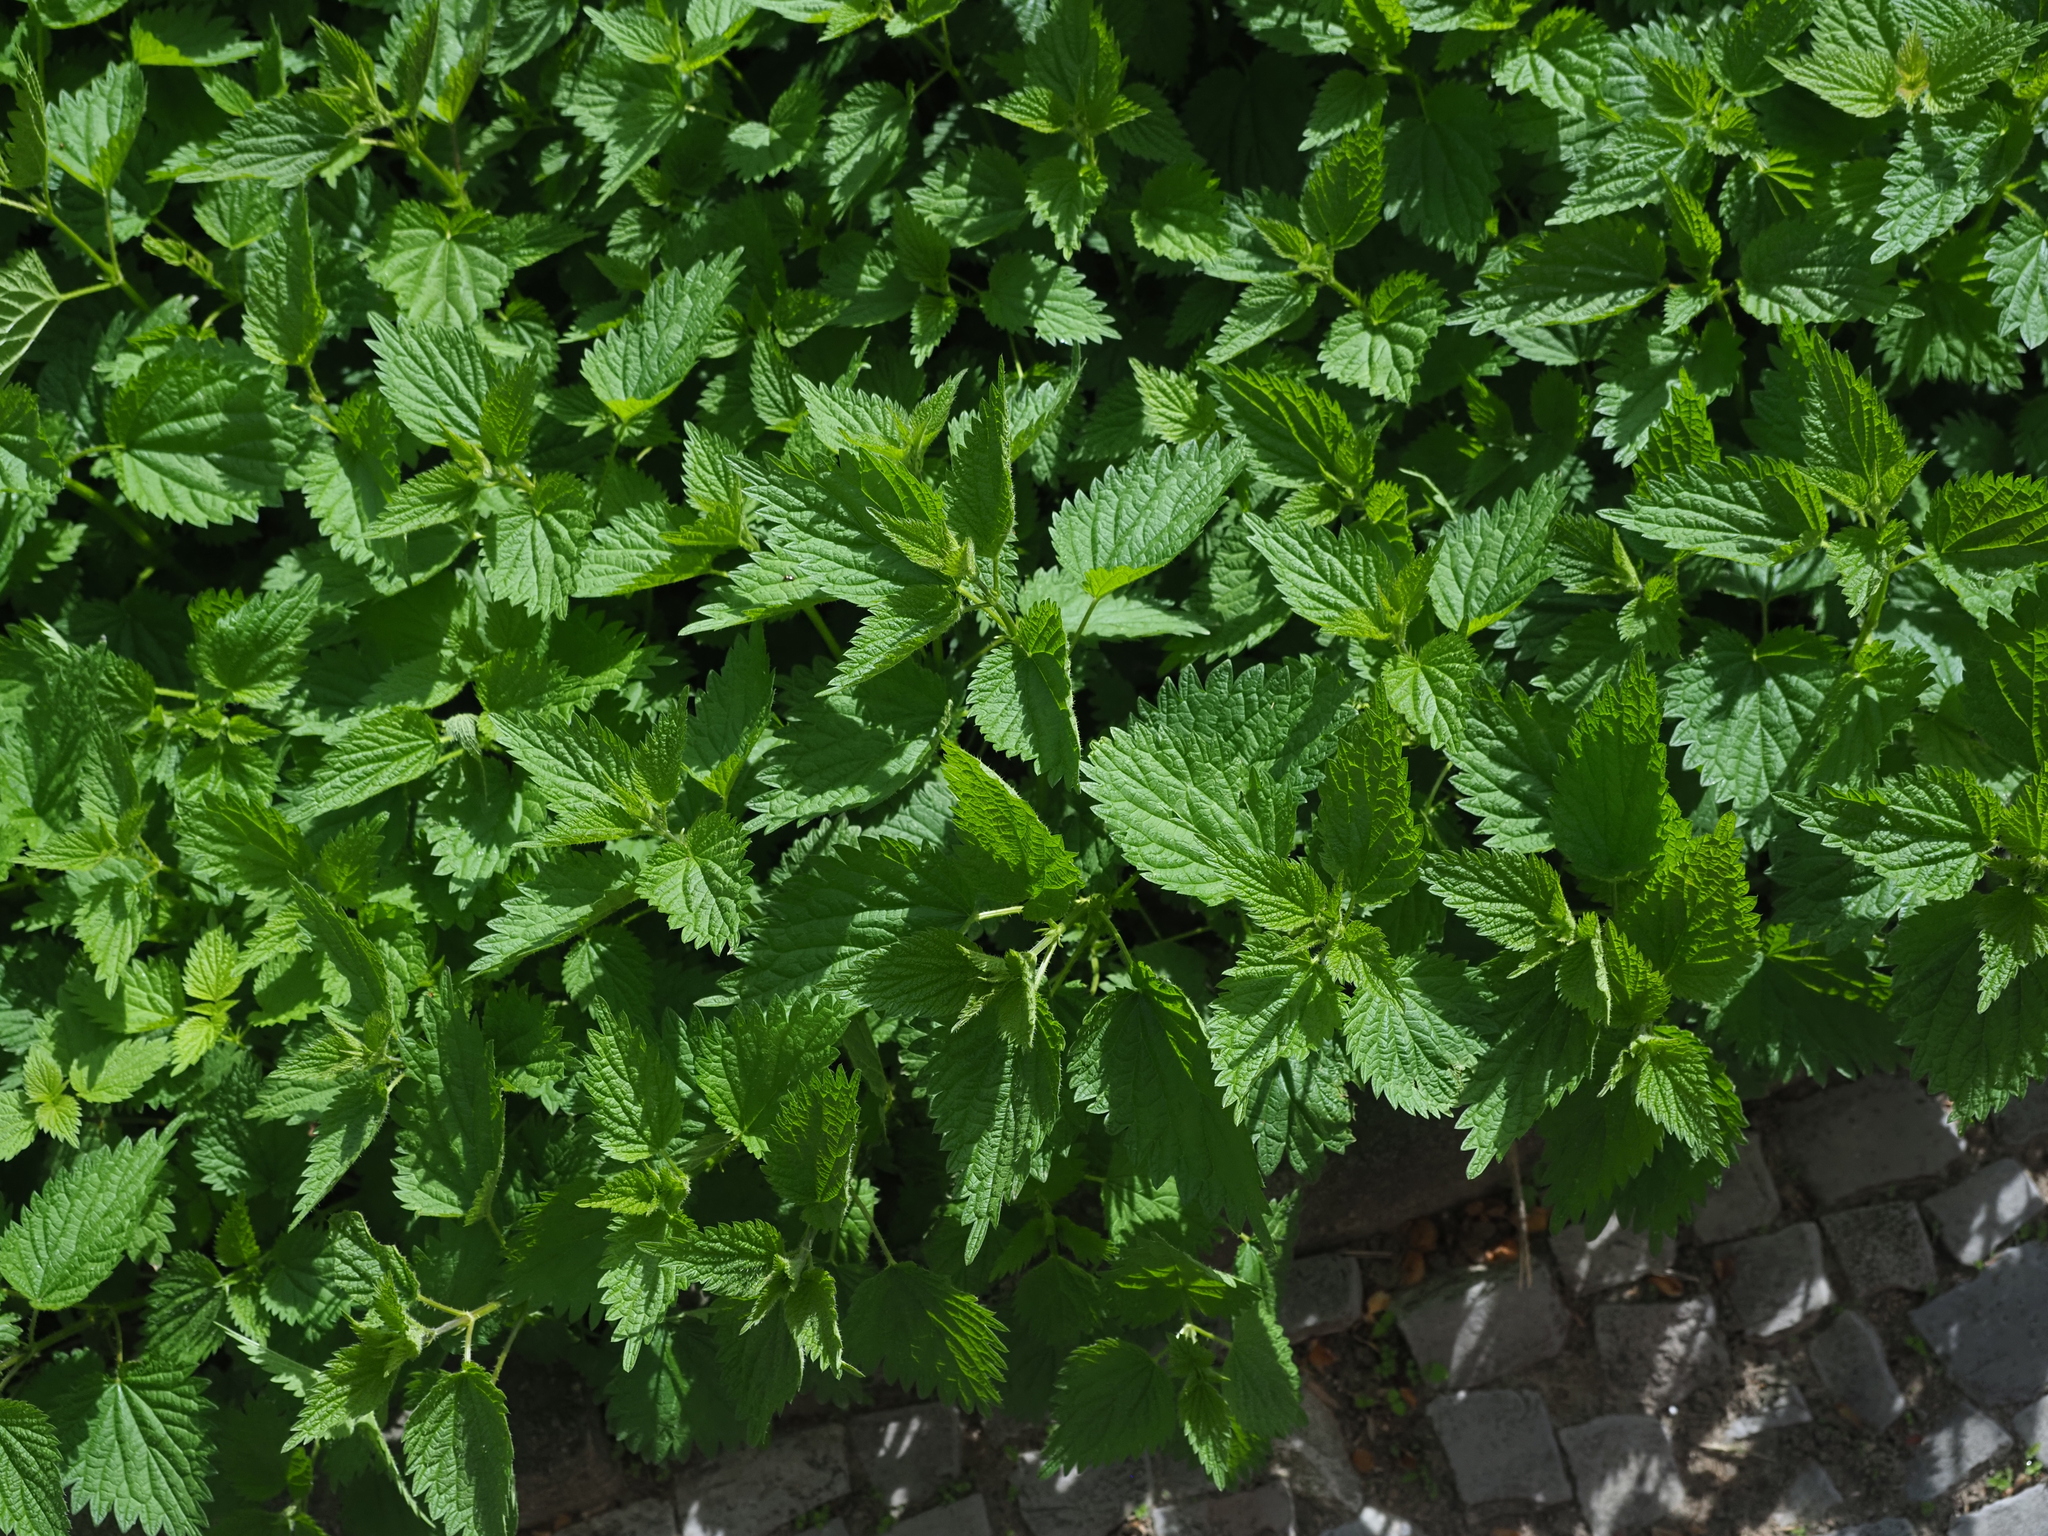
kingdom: Plantae
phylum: Tracheophyta
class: Magnoliopsida
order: Rosales
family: Urticaceae
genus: Urtica
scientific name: Urtica dioica
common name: Common nettle
